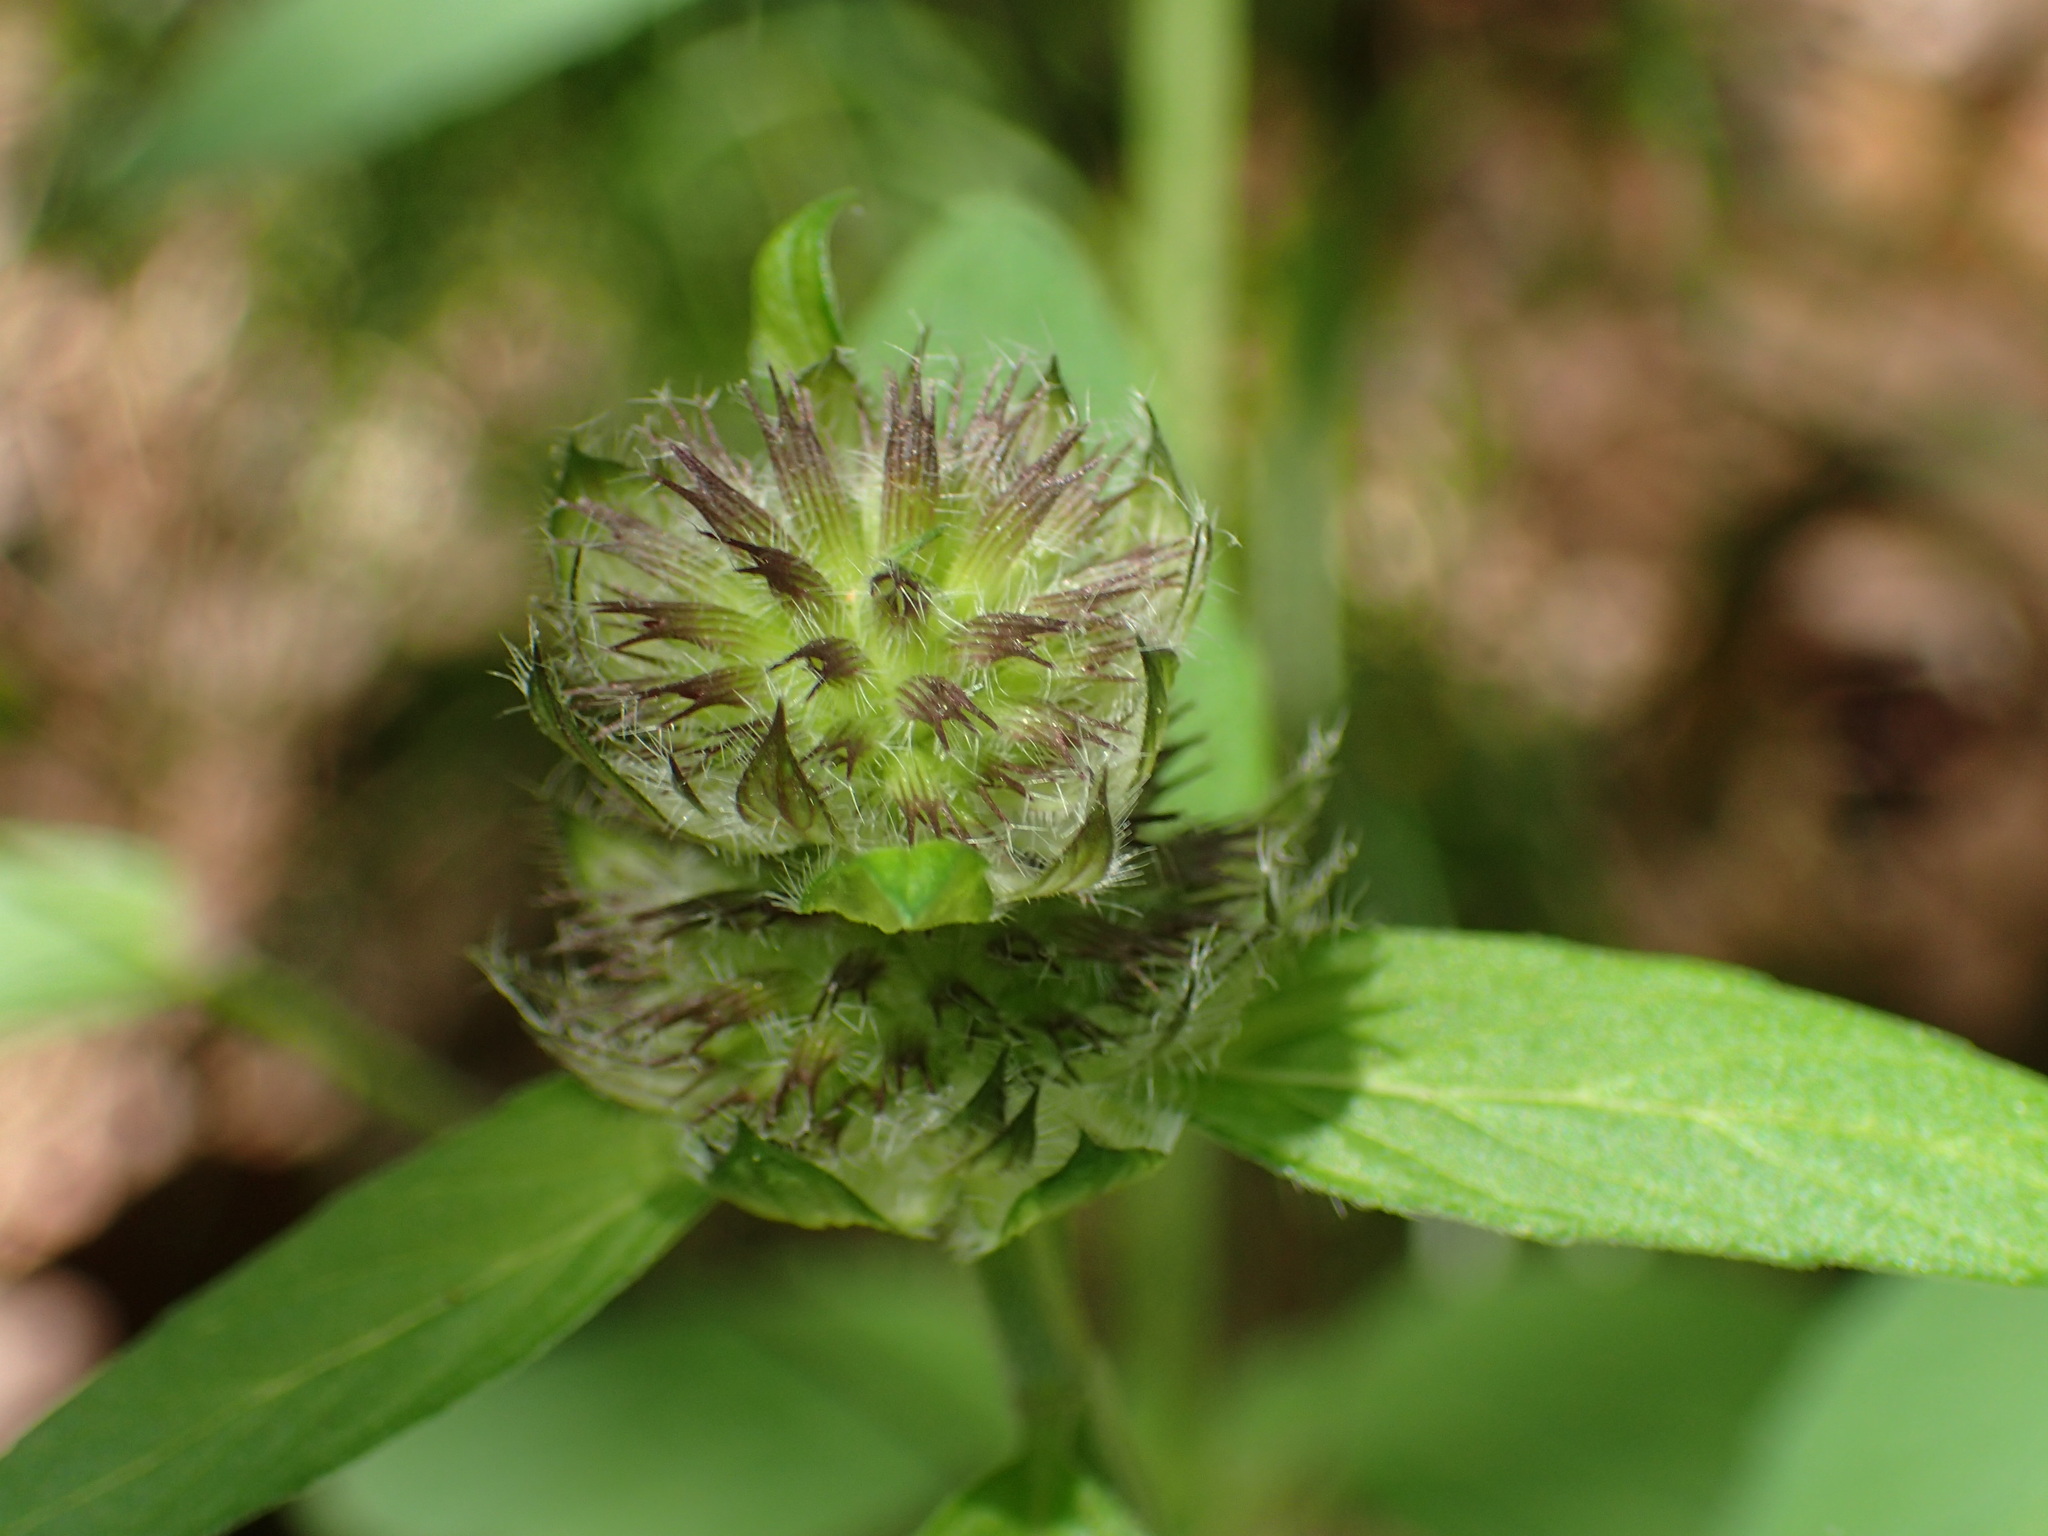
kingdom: Plantae
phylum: Tracheophyta
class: Magnoliopsida
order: Lamiales
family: Lamiaceae
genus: Blephilia
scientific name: Blephilia ciliata
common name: Downy blephilia
